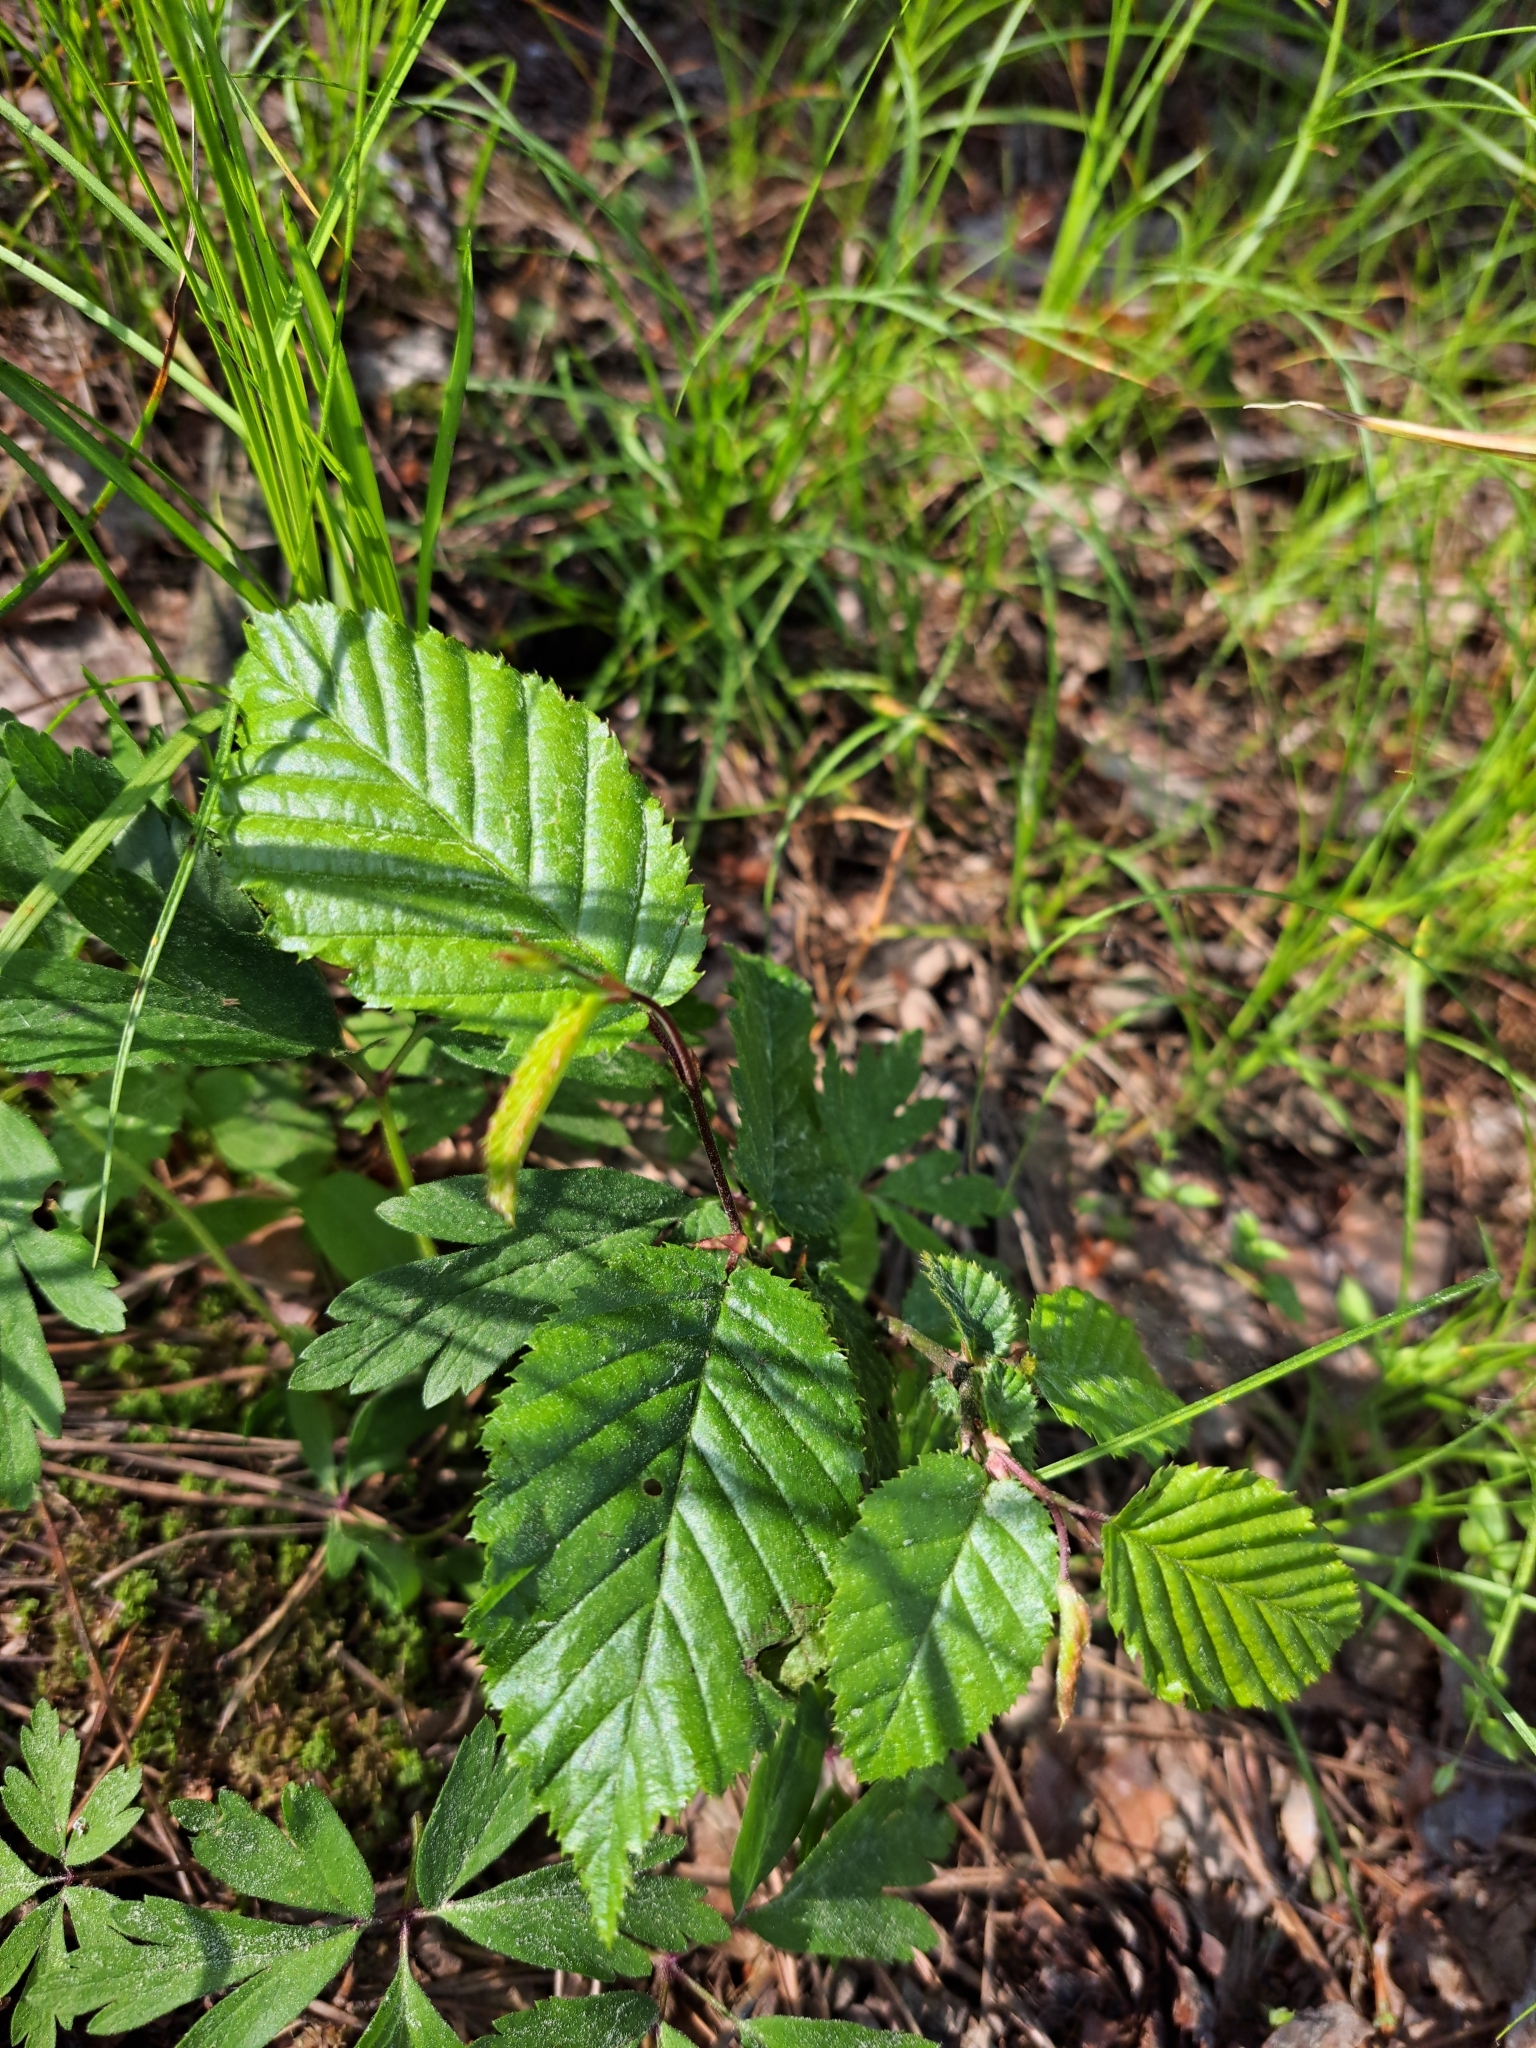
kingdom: Plantae
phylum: Tracheophyta
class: Magnoliopsida
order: Fagales
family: Betulaceae
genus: Carpinus
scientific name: Carpinus betulus
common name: Hornbeam
